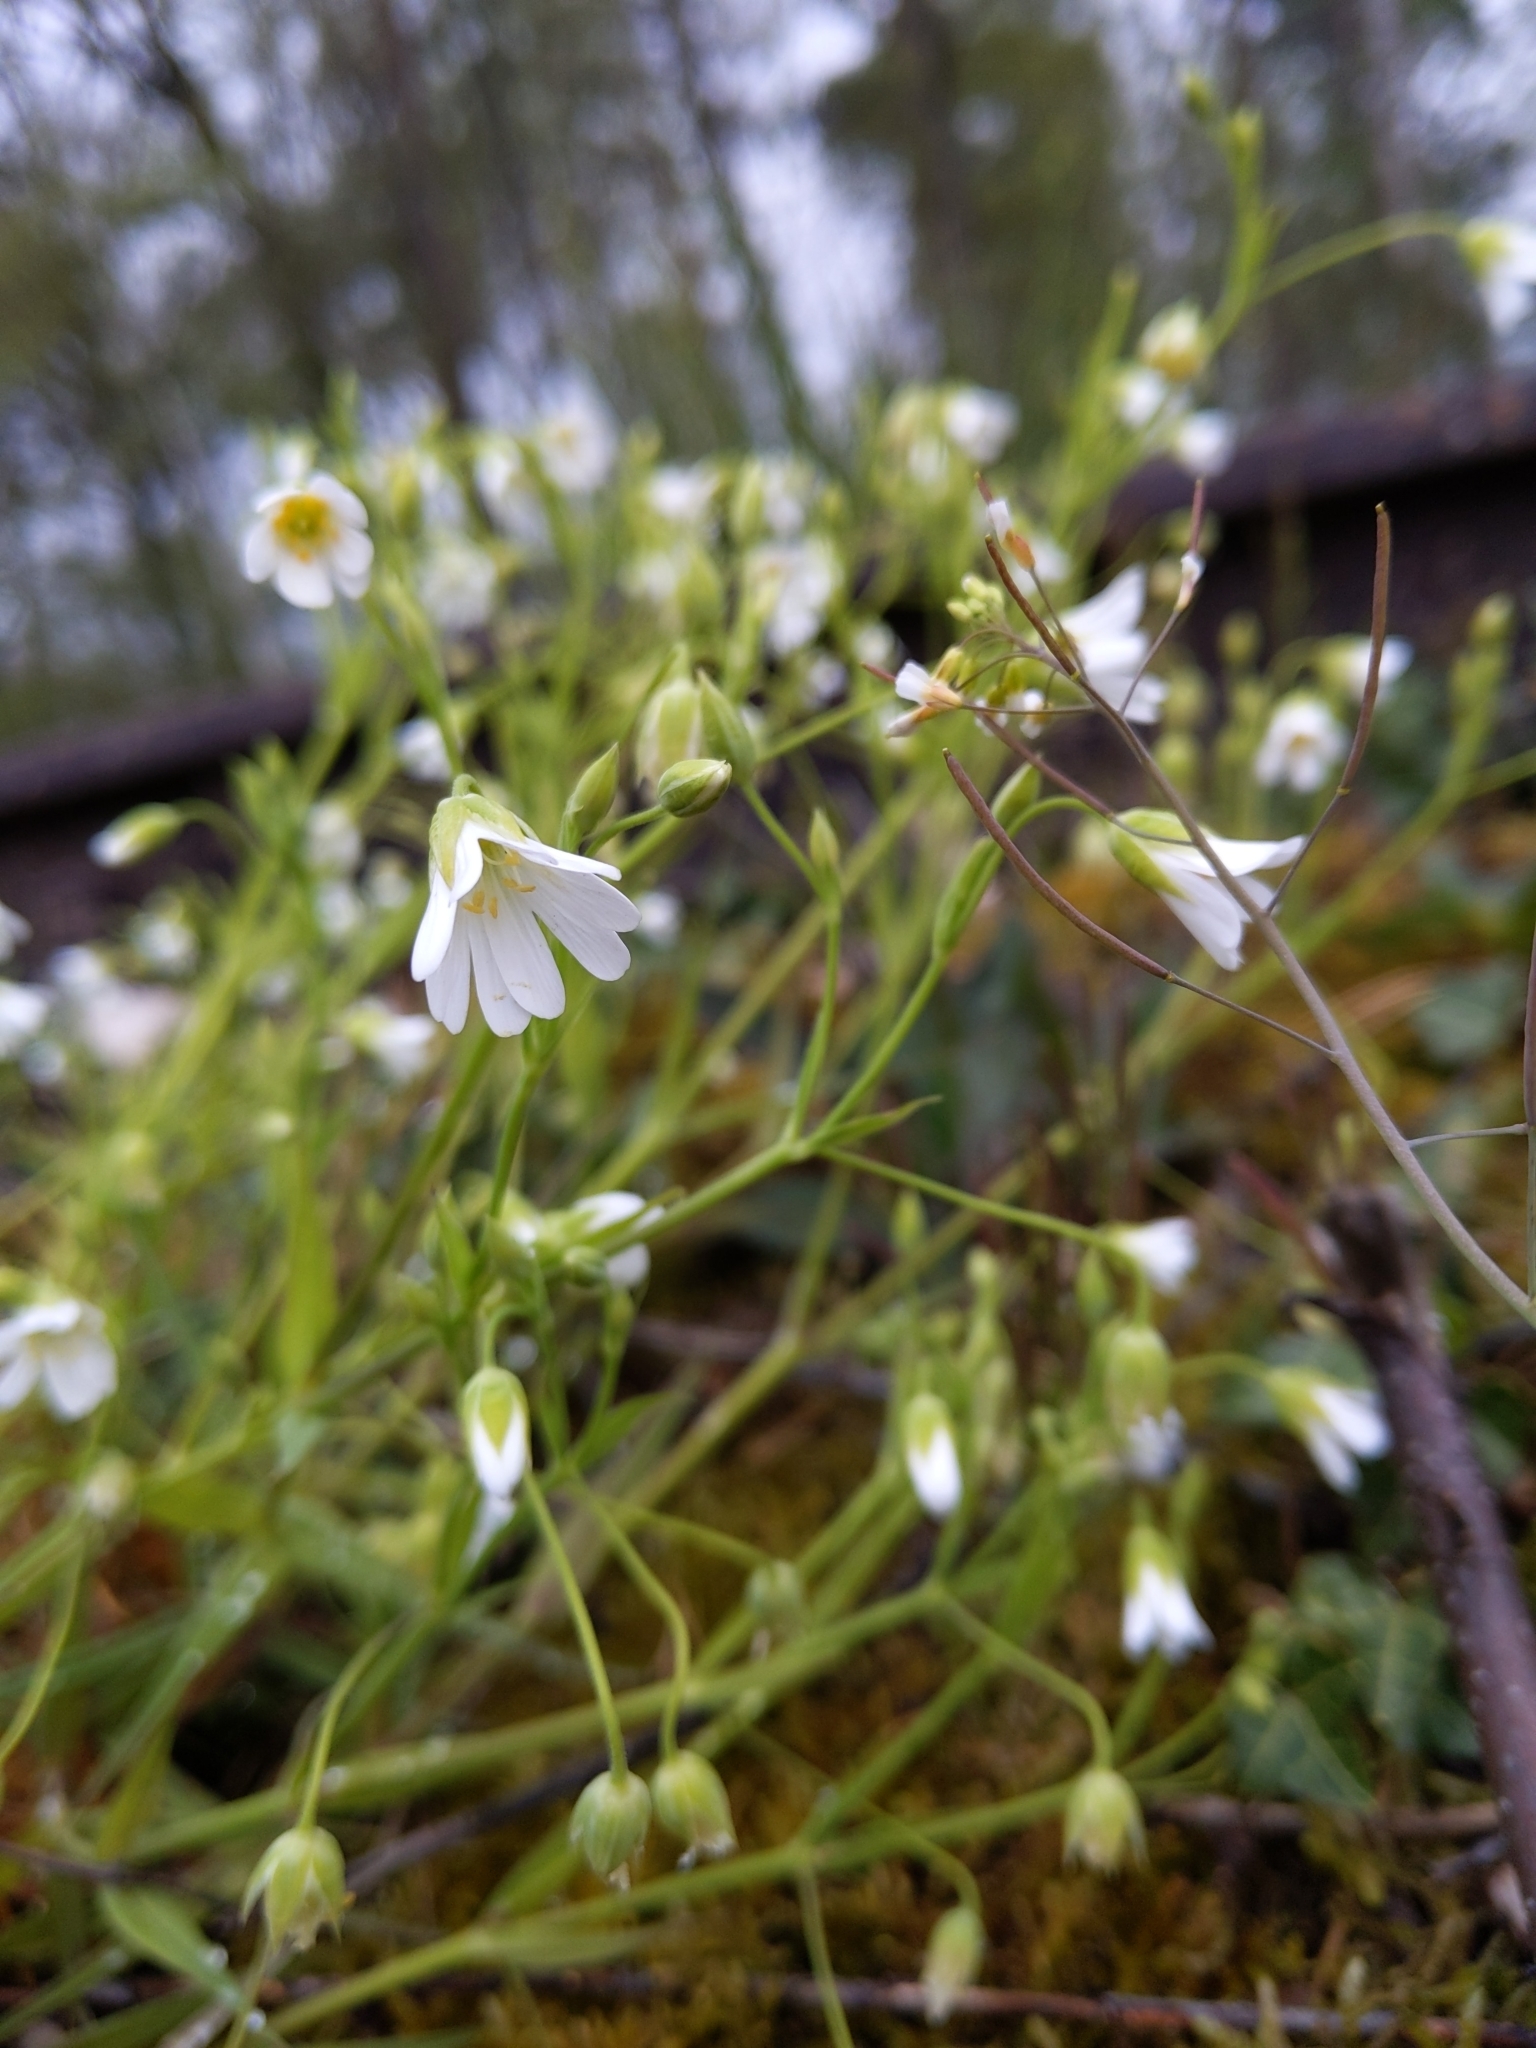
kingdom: Plantae
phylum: Tracheophyta
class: Magnoliopsida
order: Caryophyllales
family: Caryophyllaceae
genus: Rabelera
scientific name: Rabelera holostea
